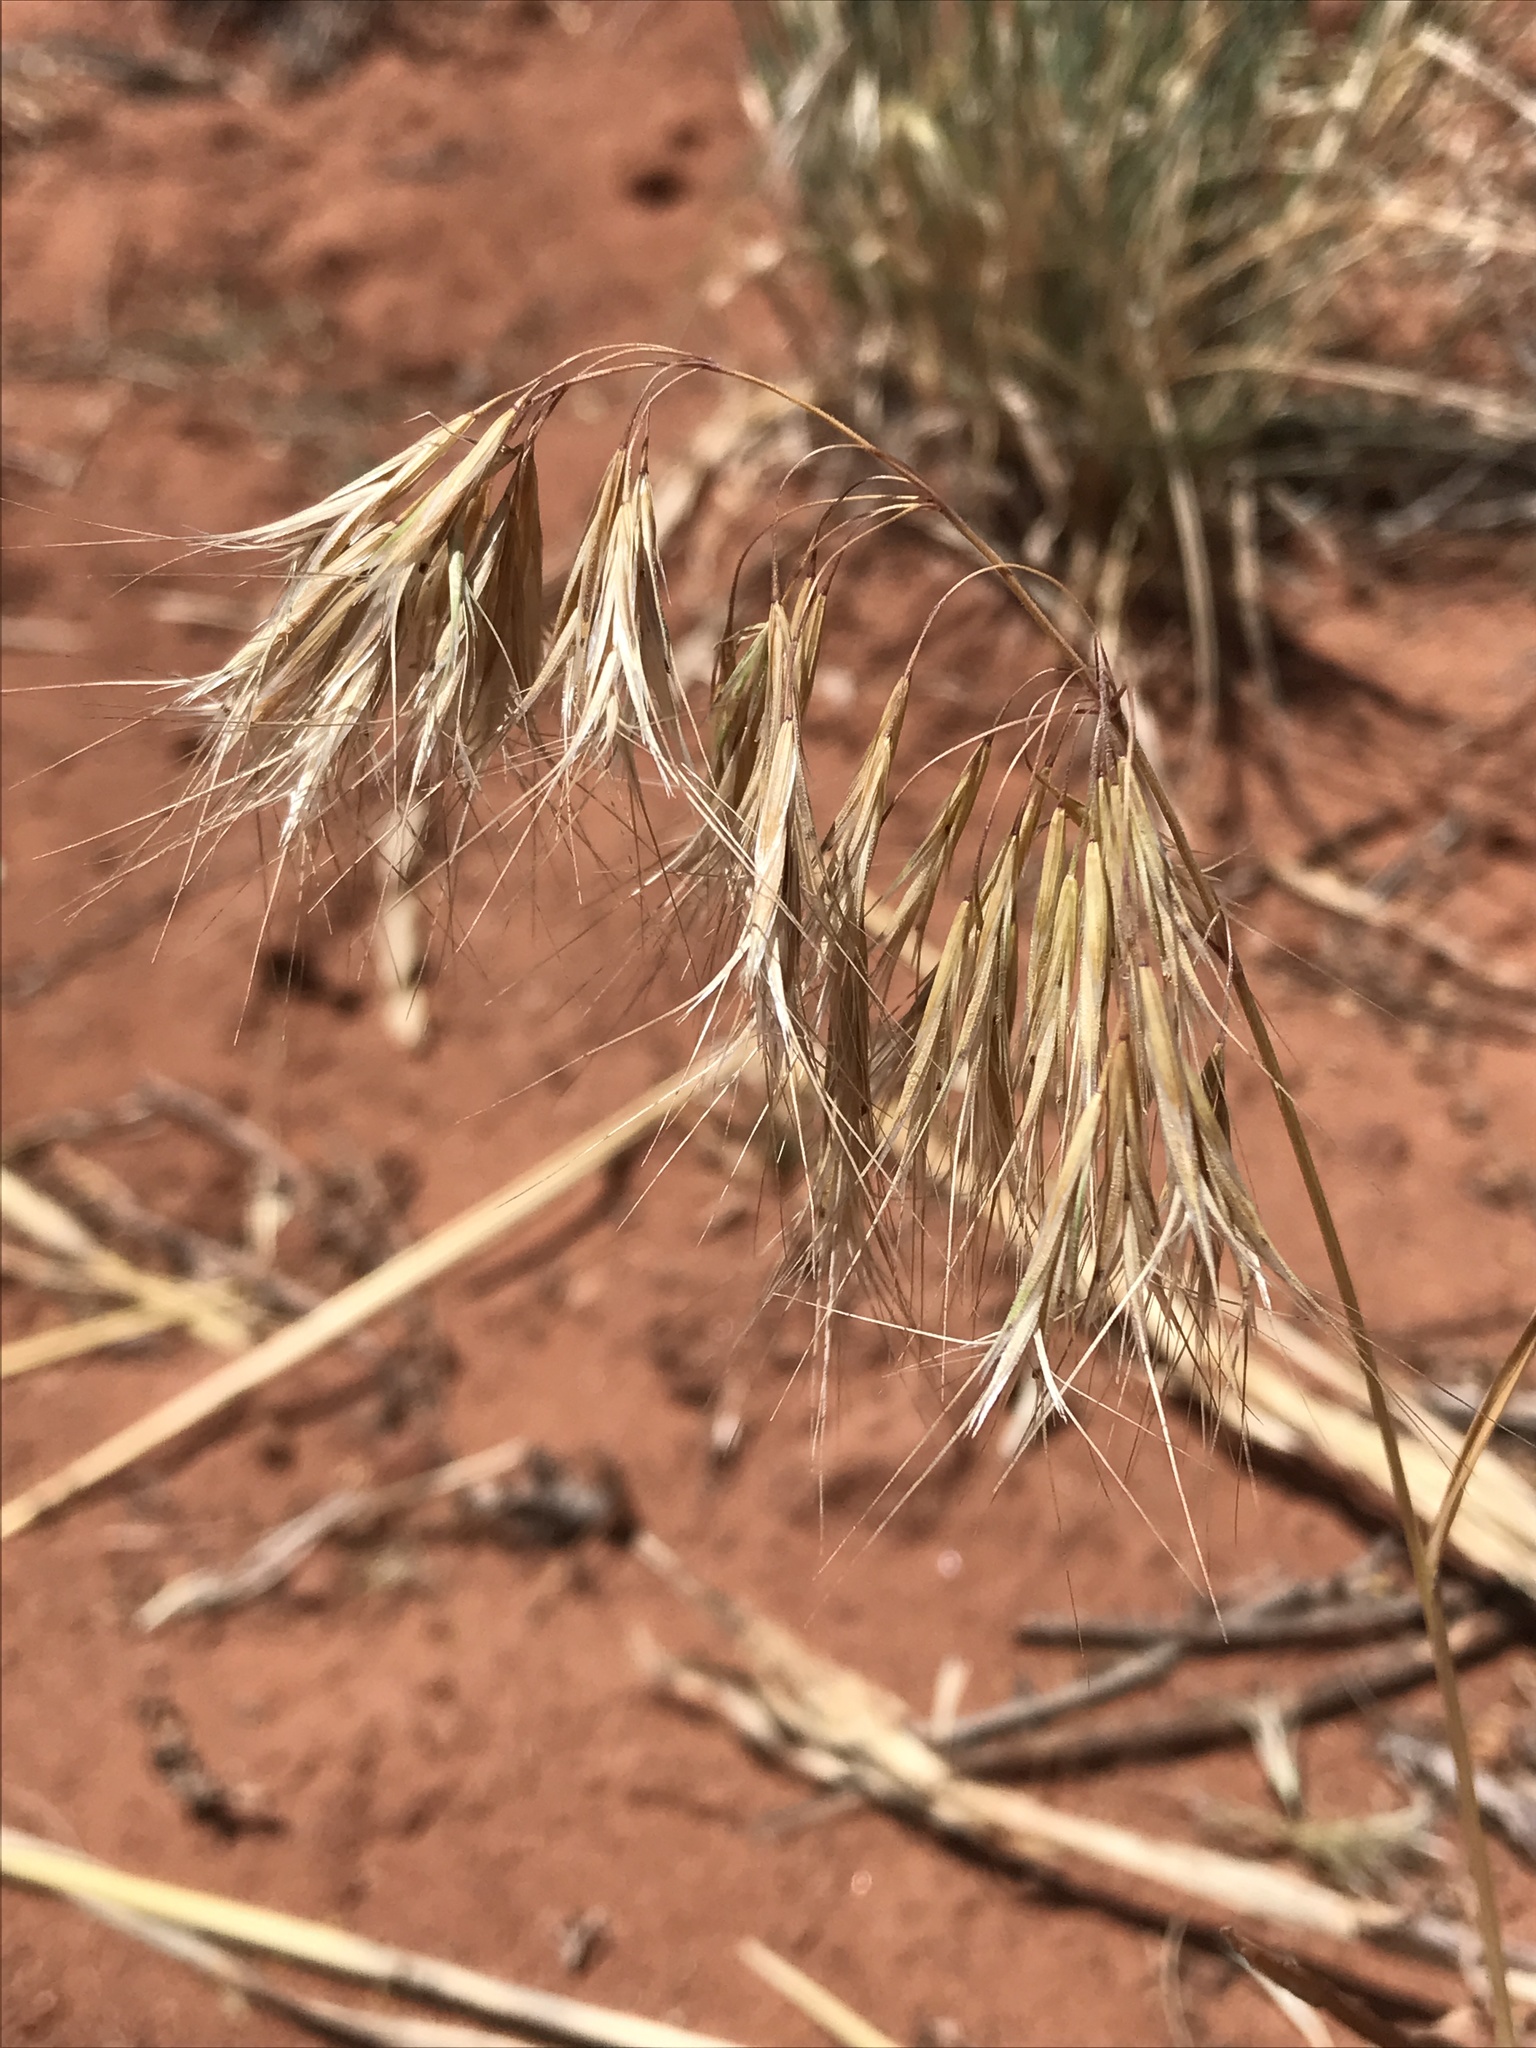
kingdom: Plantae
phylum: Tracheophyta
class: Liliopsida
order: Poales
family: Poaceae
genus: Bromus
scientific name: Bromus tectorum
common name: Cheatgrass
